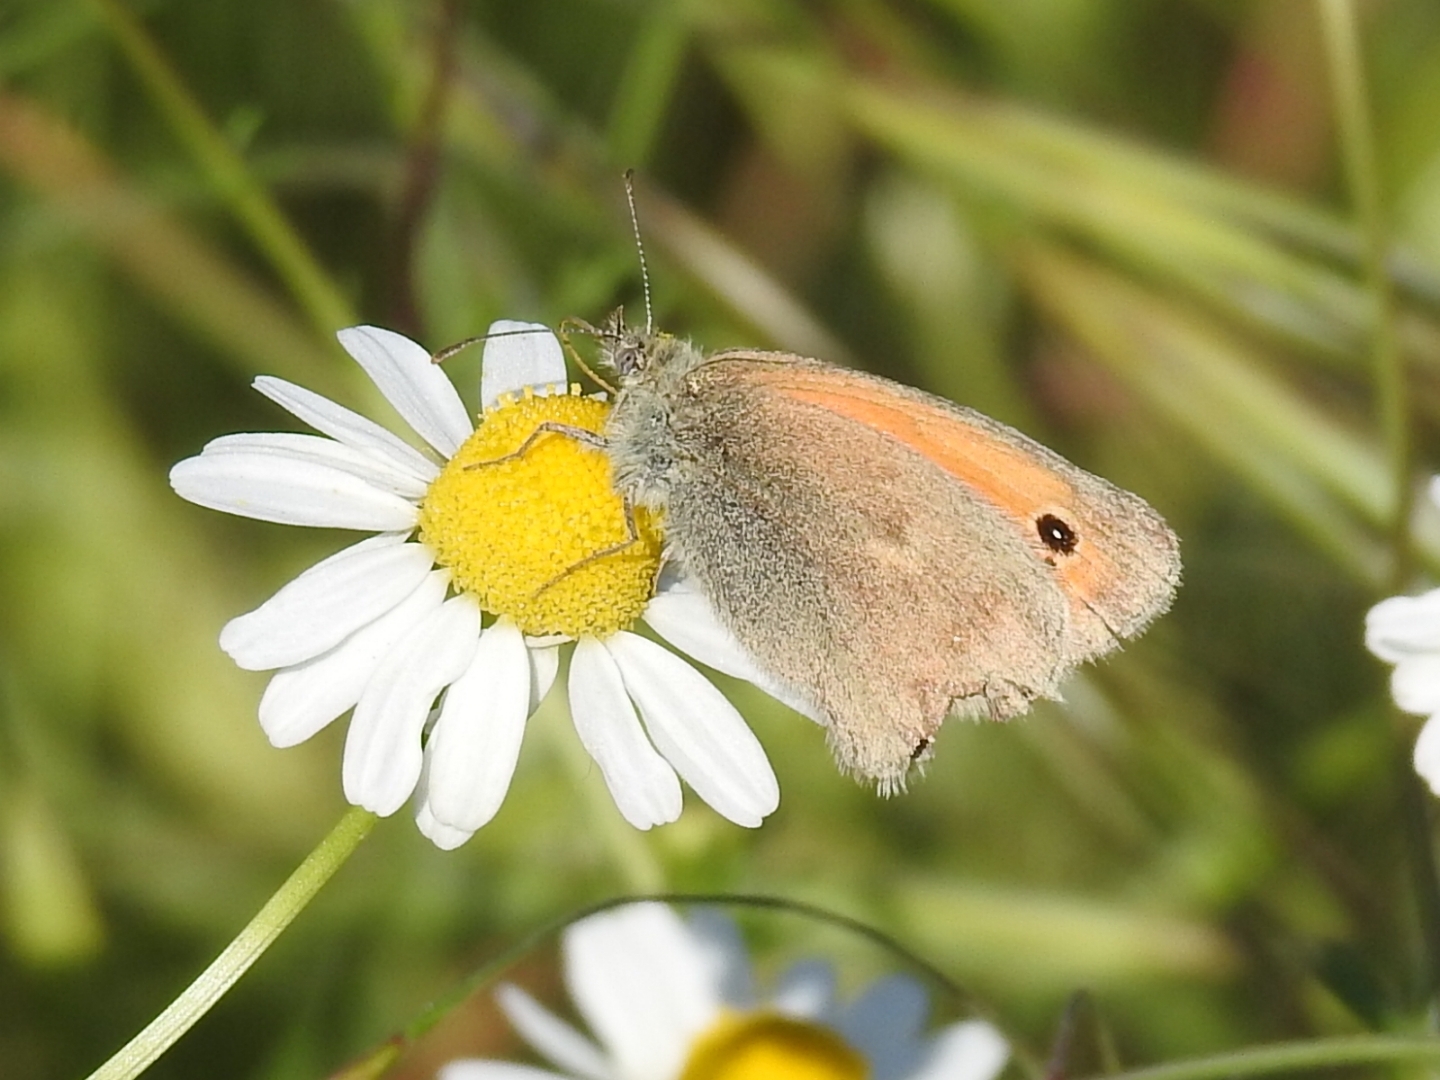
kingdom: Animalia
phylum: Arthropoda
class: Insecta
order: Lepidoptera
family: Nymphalidae
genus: Coenonympha
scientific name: Coenonympha pamphilus
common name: Small heath
